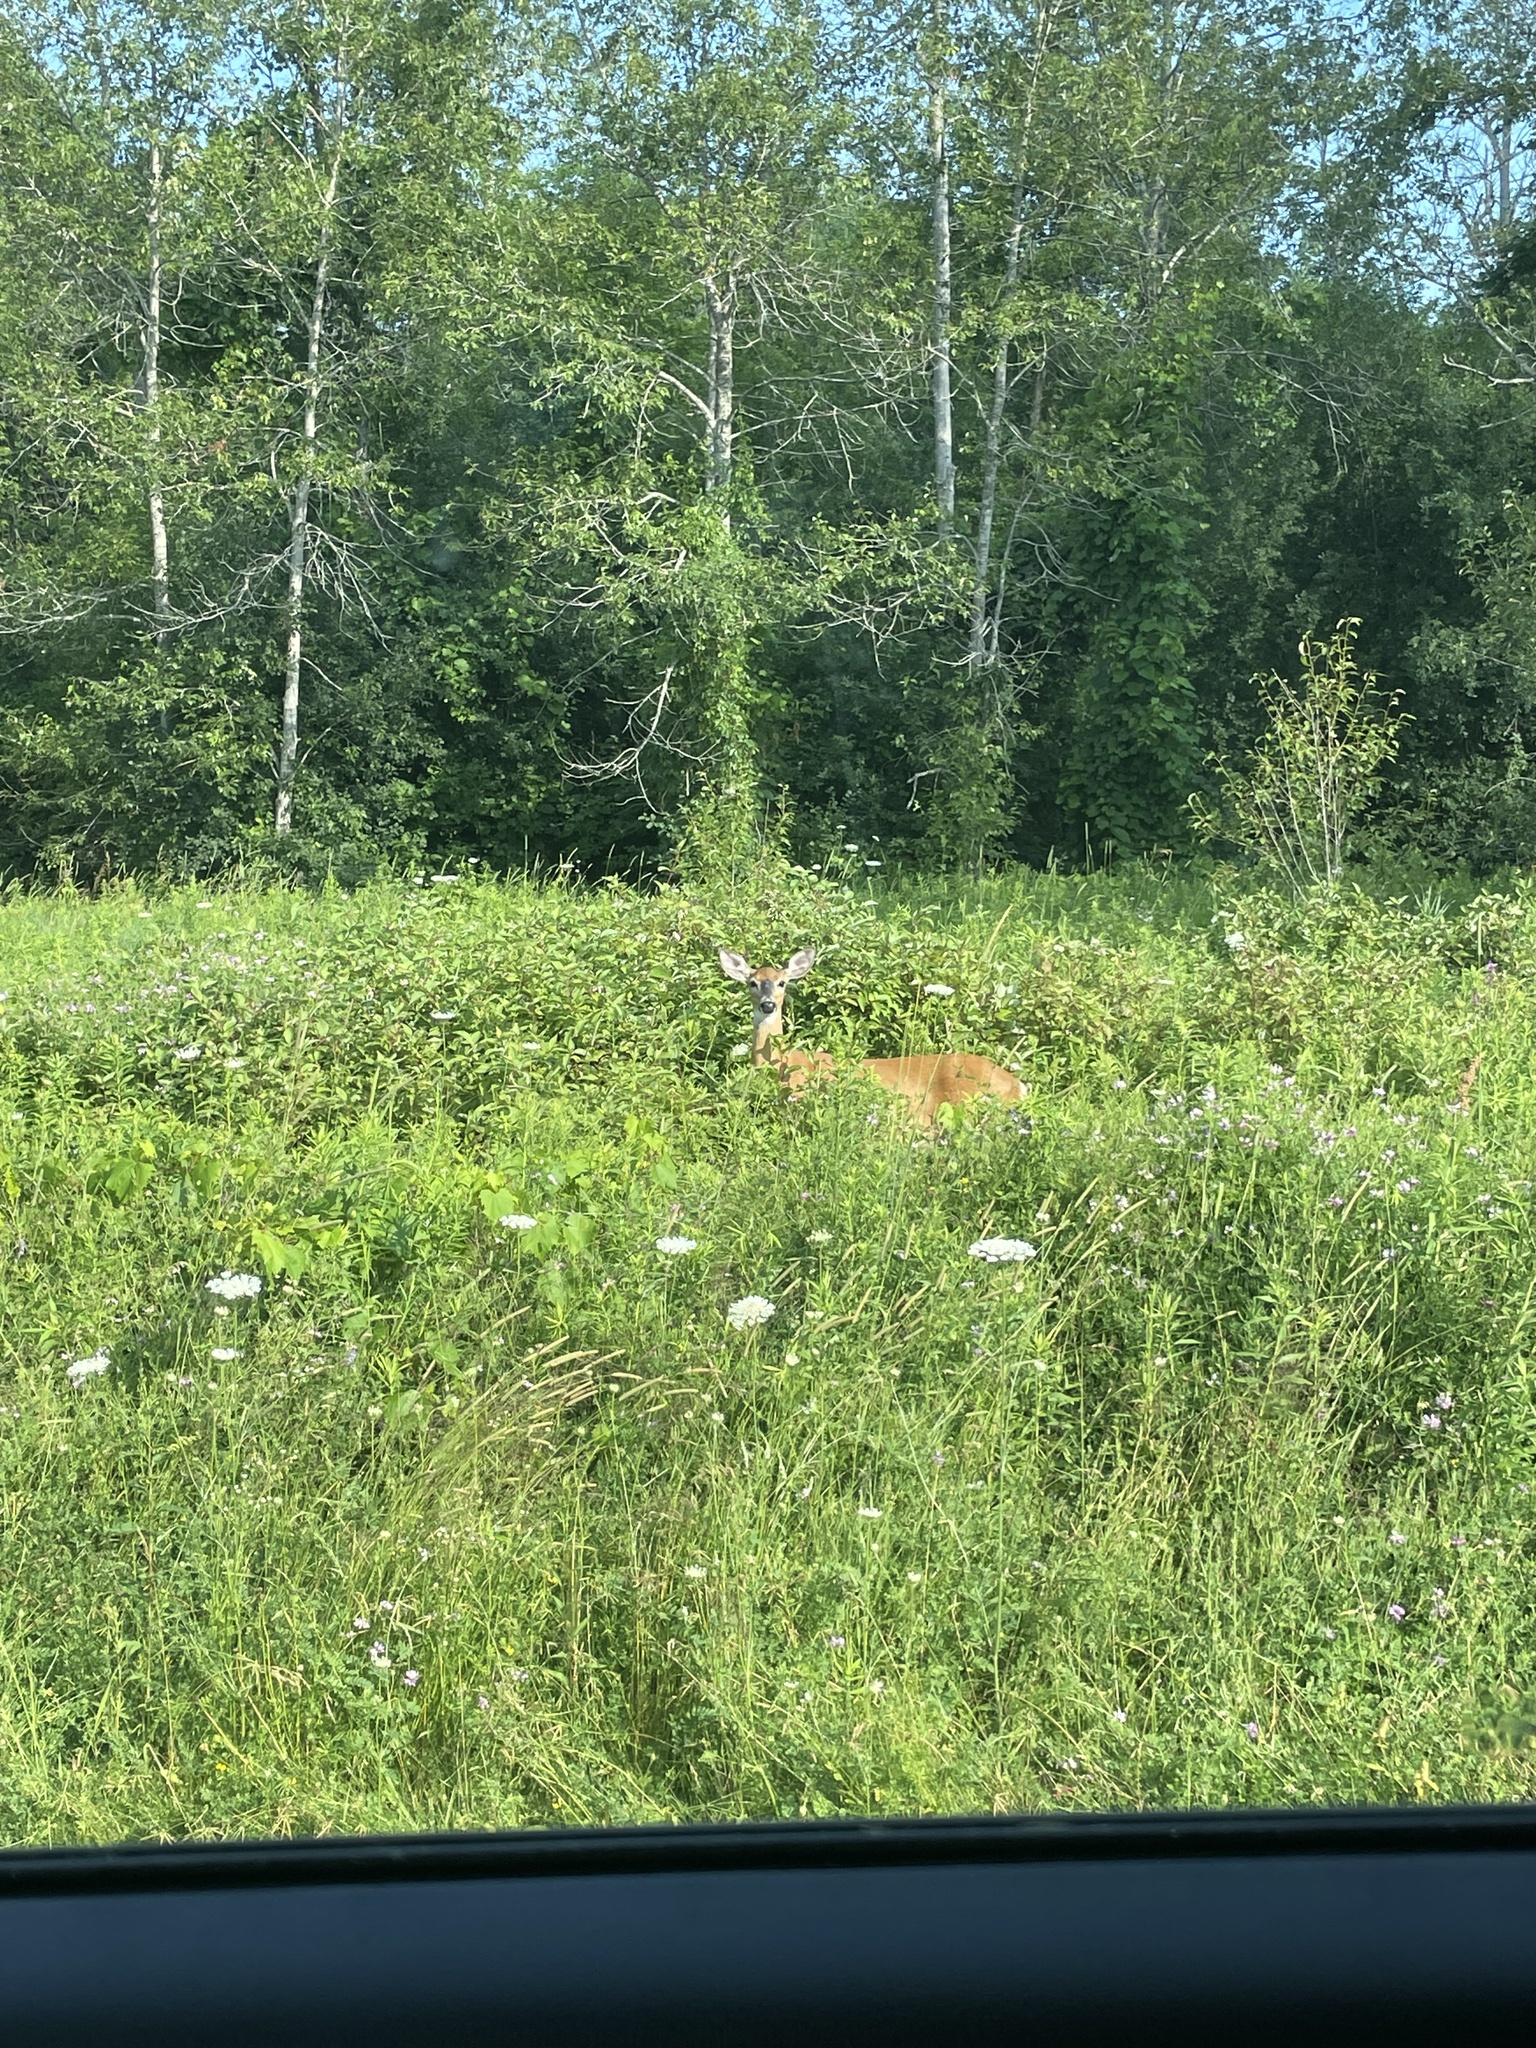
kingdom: Animalia
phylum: Chordata
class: Mammalia
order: Artiodactyla
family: Cervidae
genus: Odocoileus
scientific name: Odocoileus virginianus
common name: White-tailed deer
